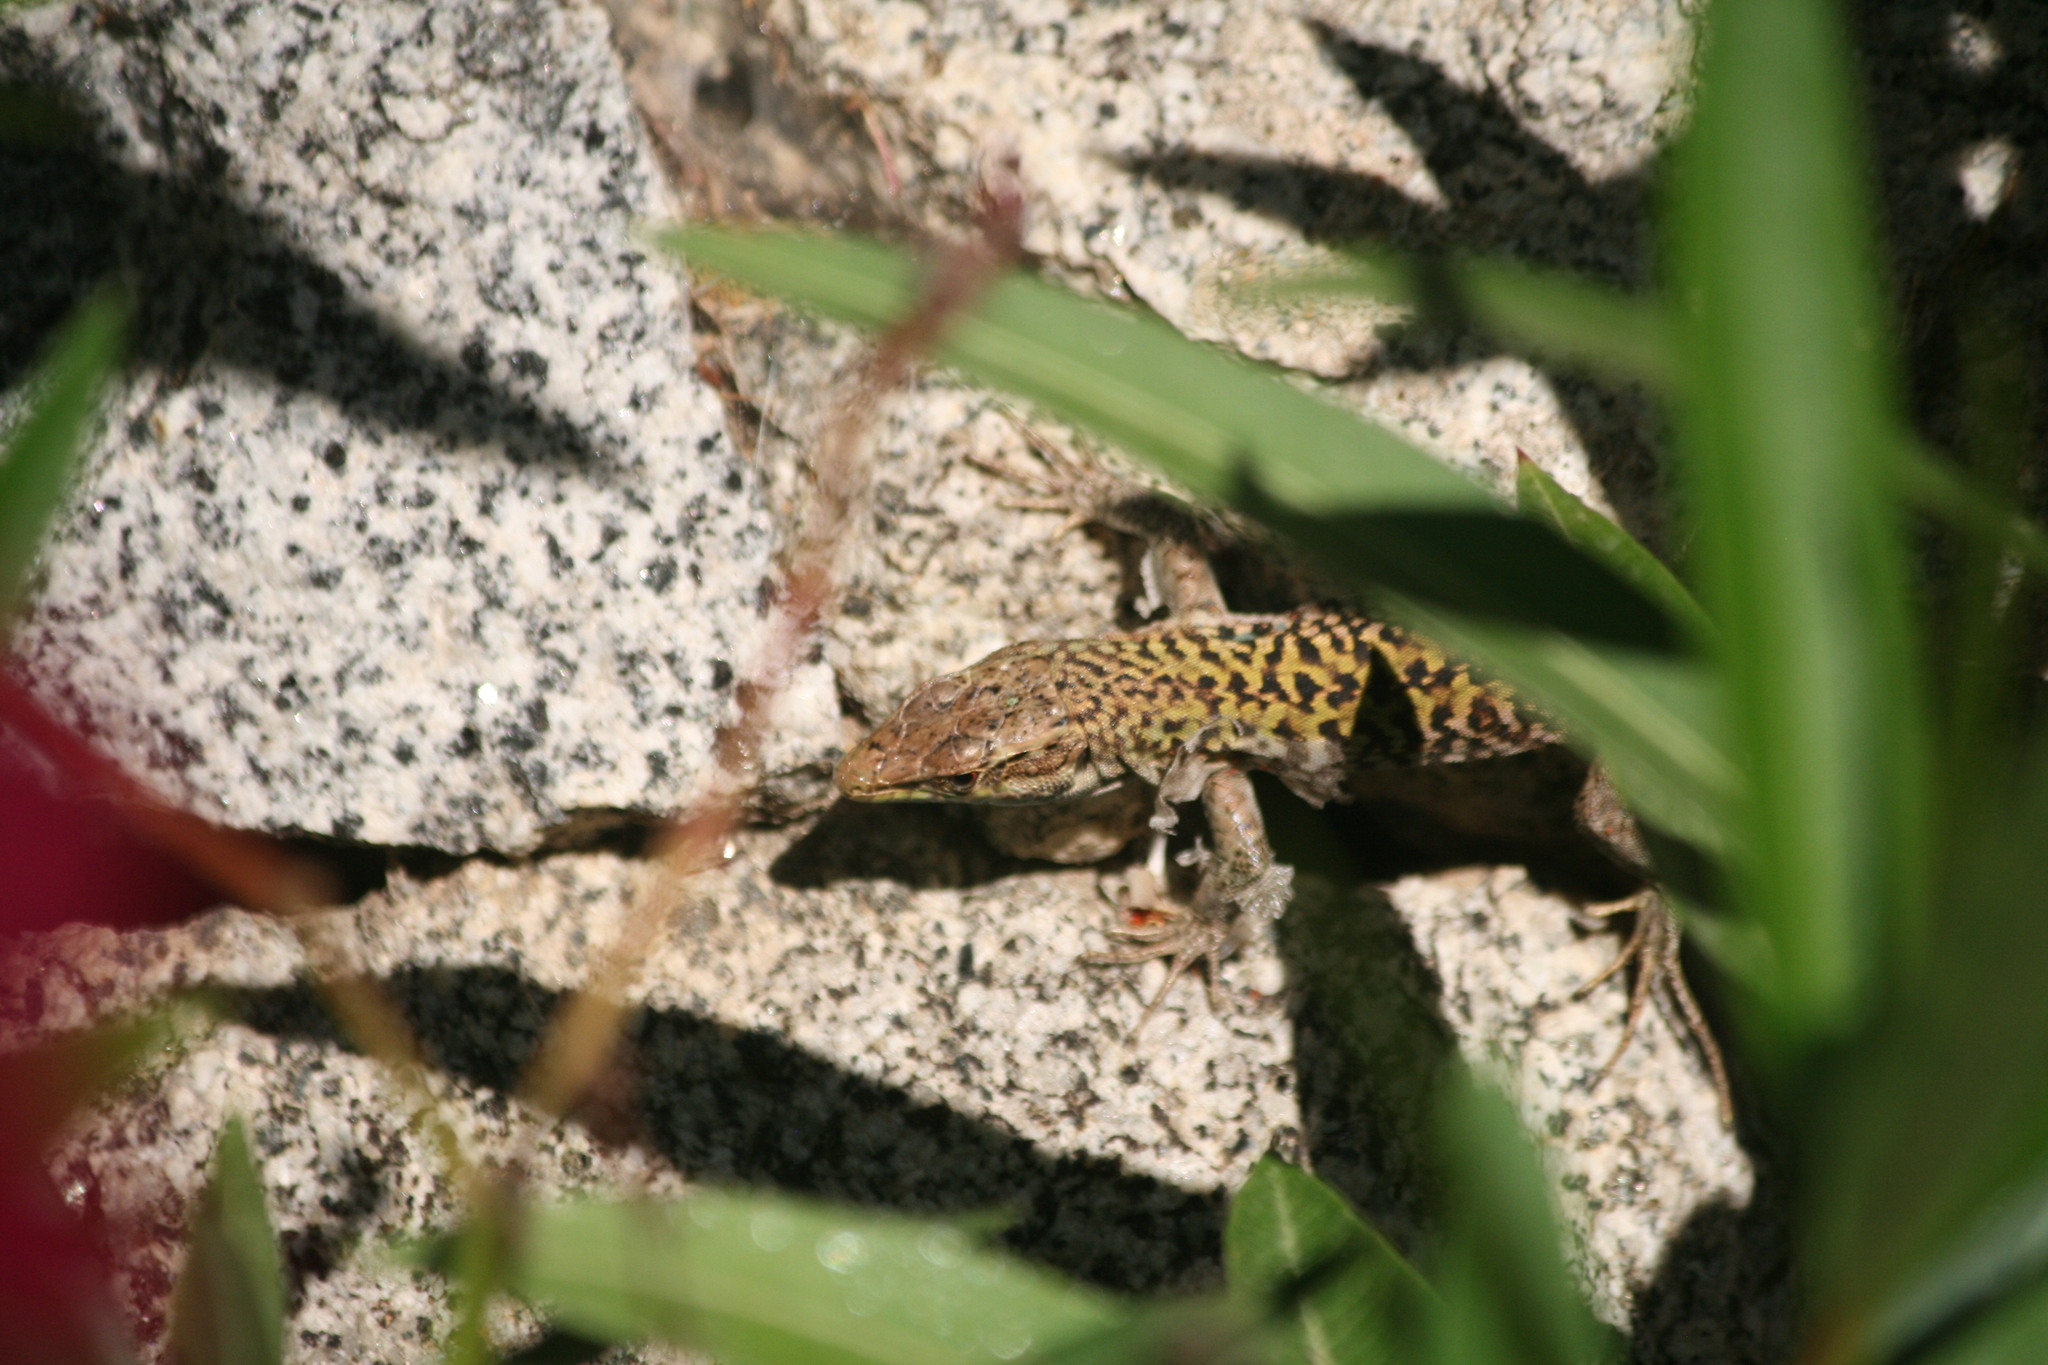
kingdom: Animalia
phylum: Chordata
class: Squamata
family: Lacertidae
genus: Podarcis
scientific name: Podarcis siculus
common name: Italian wall lizard
